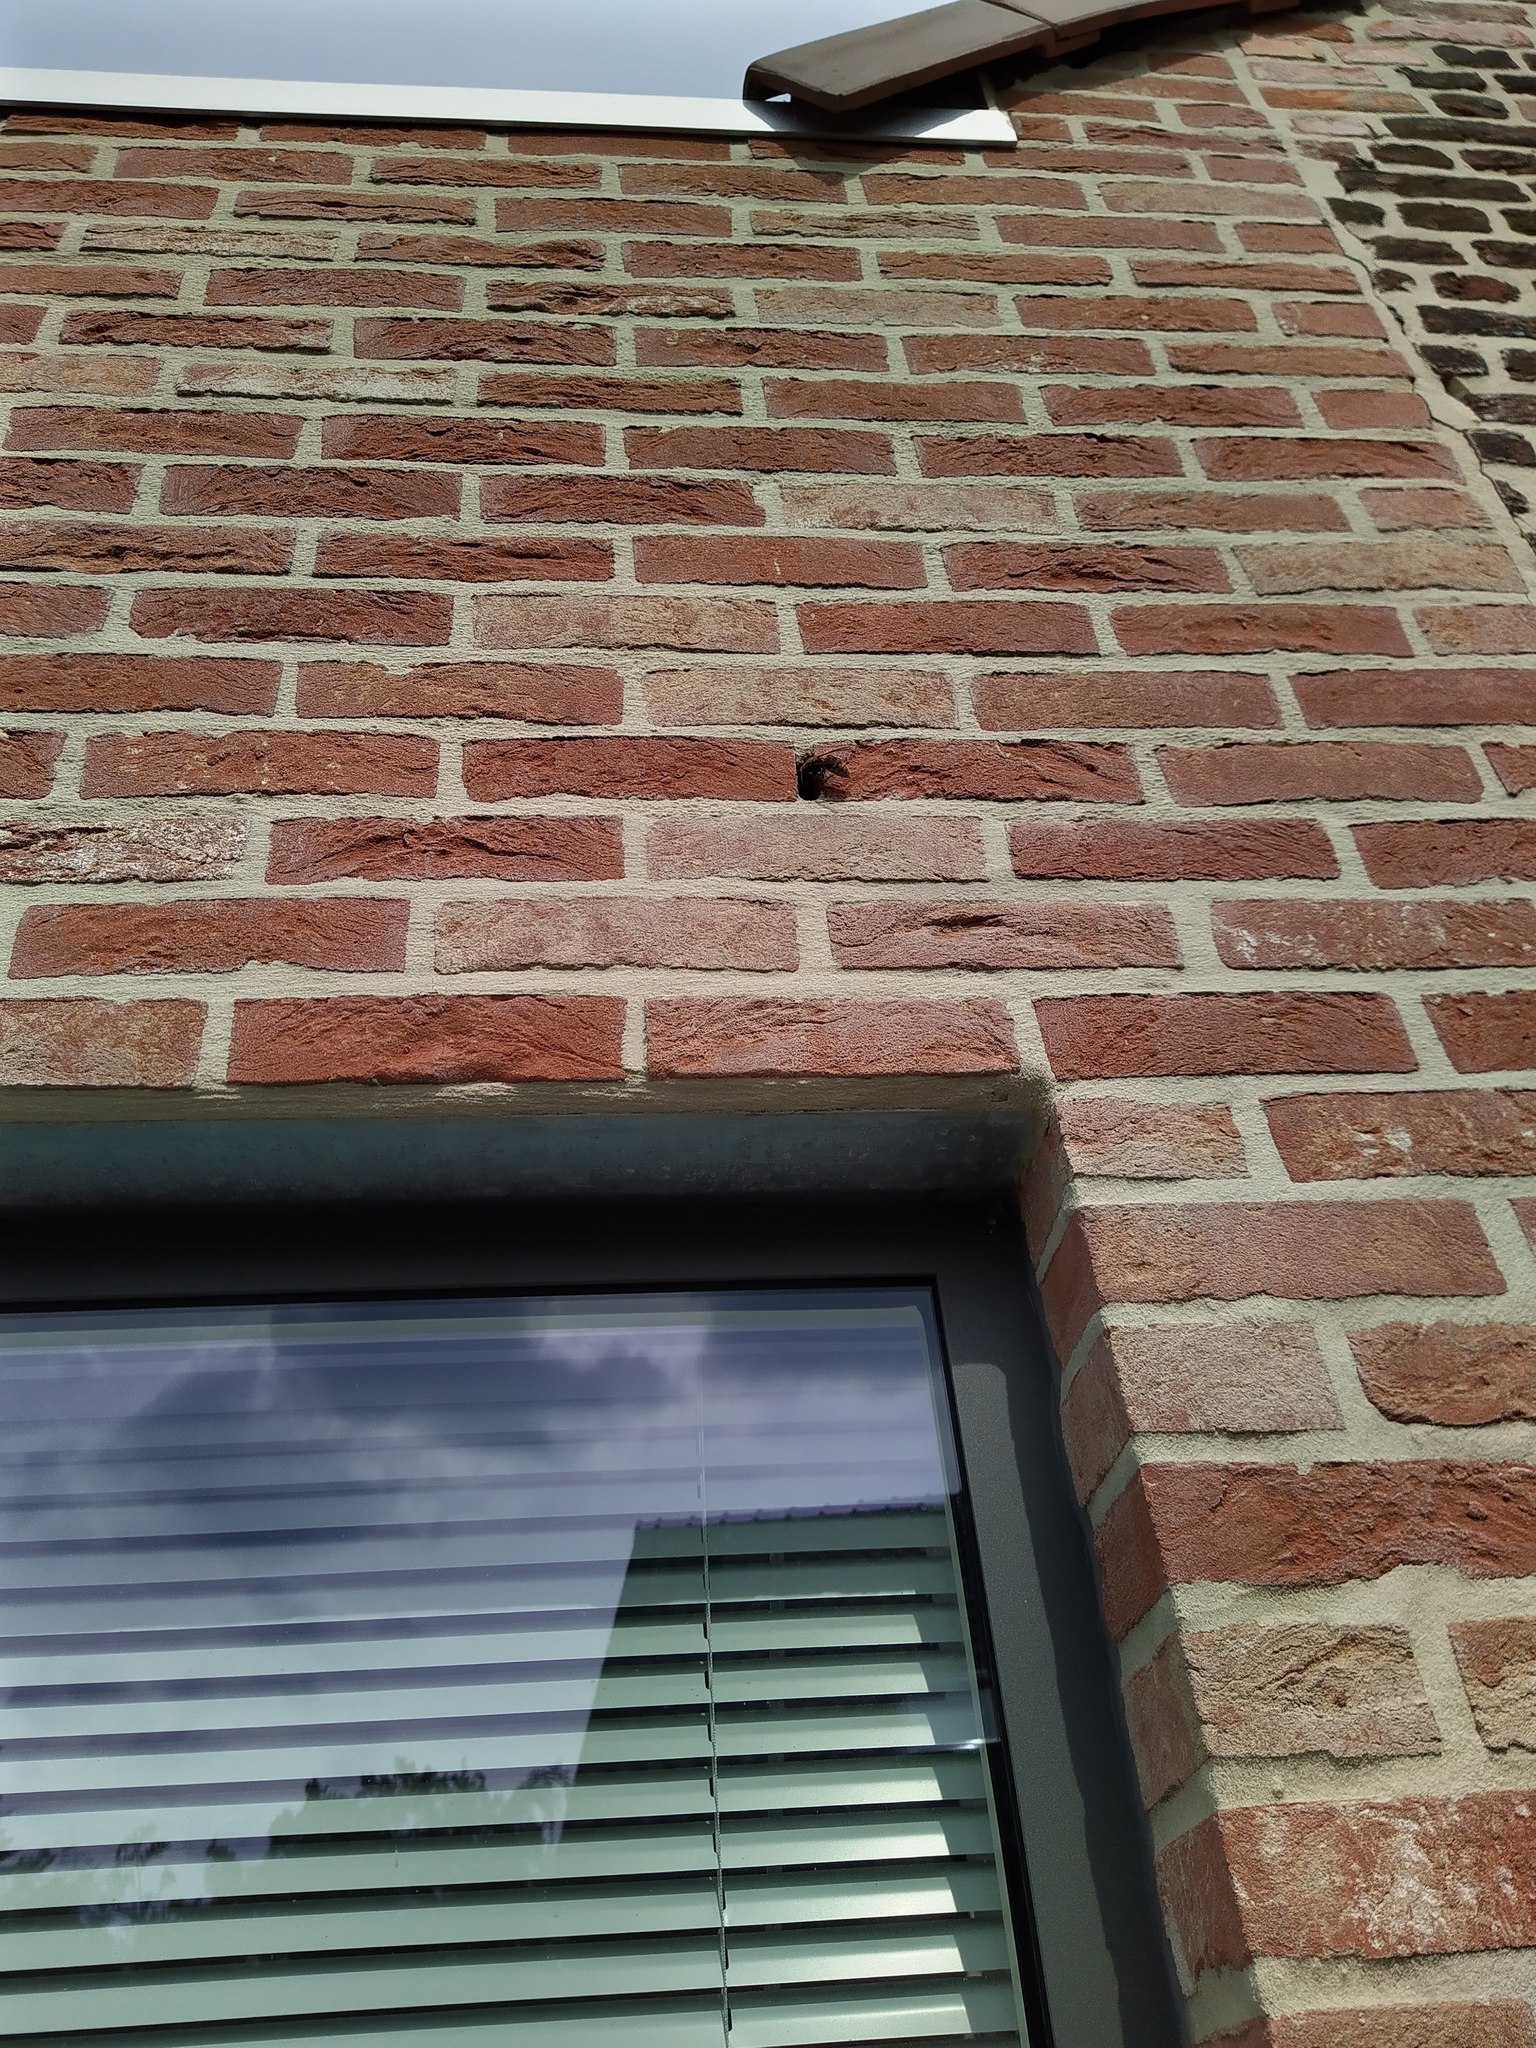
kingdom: Animalia
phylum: Arthropoda
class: Insecta
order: Hymenoptera
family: Vespidae
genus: Vespa
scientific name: Vespa crabro
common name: Hornet
